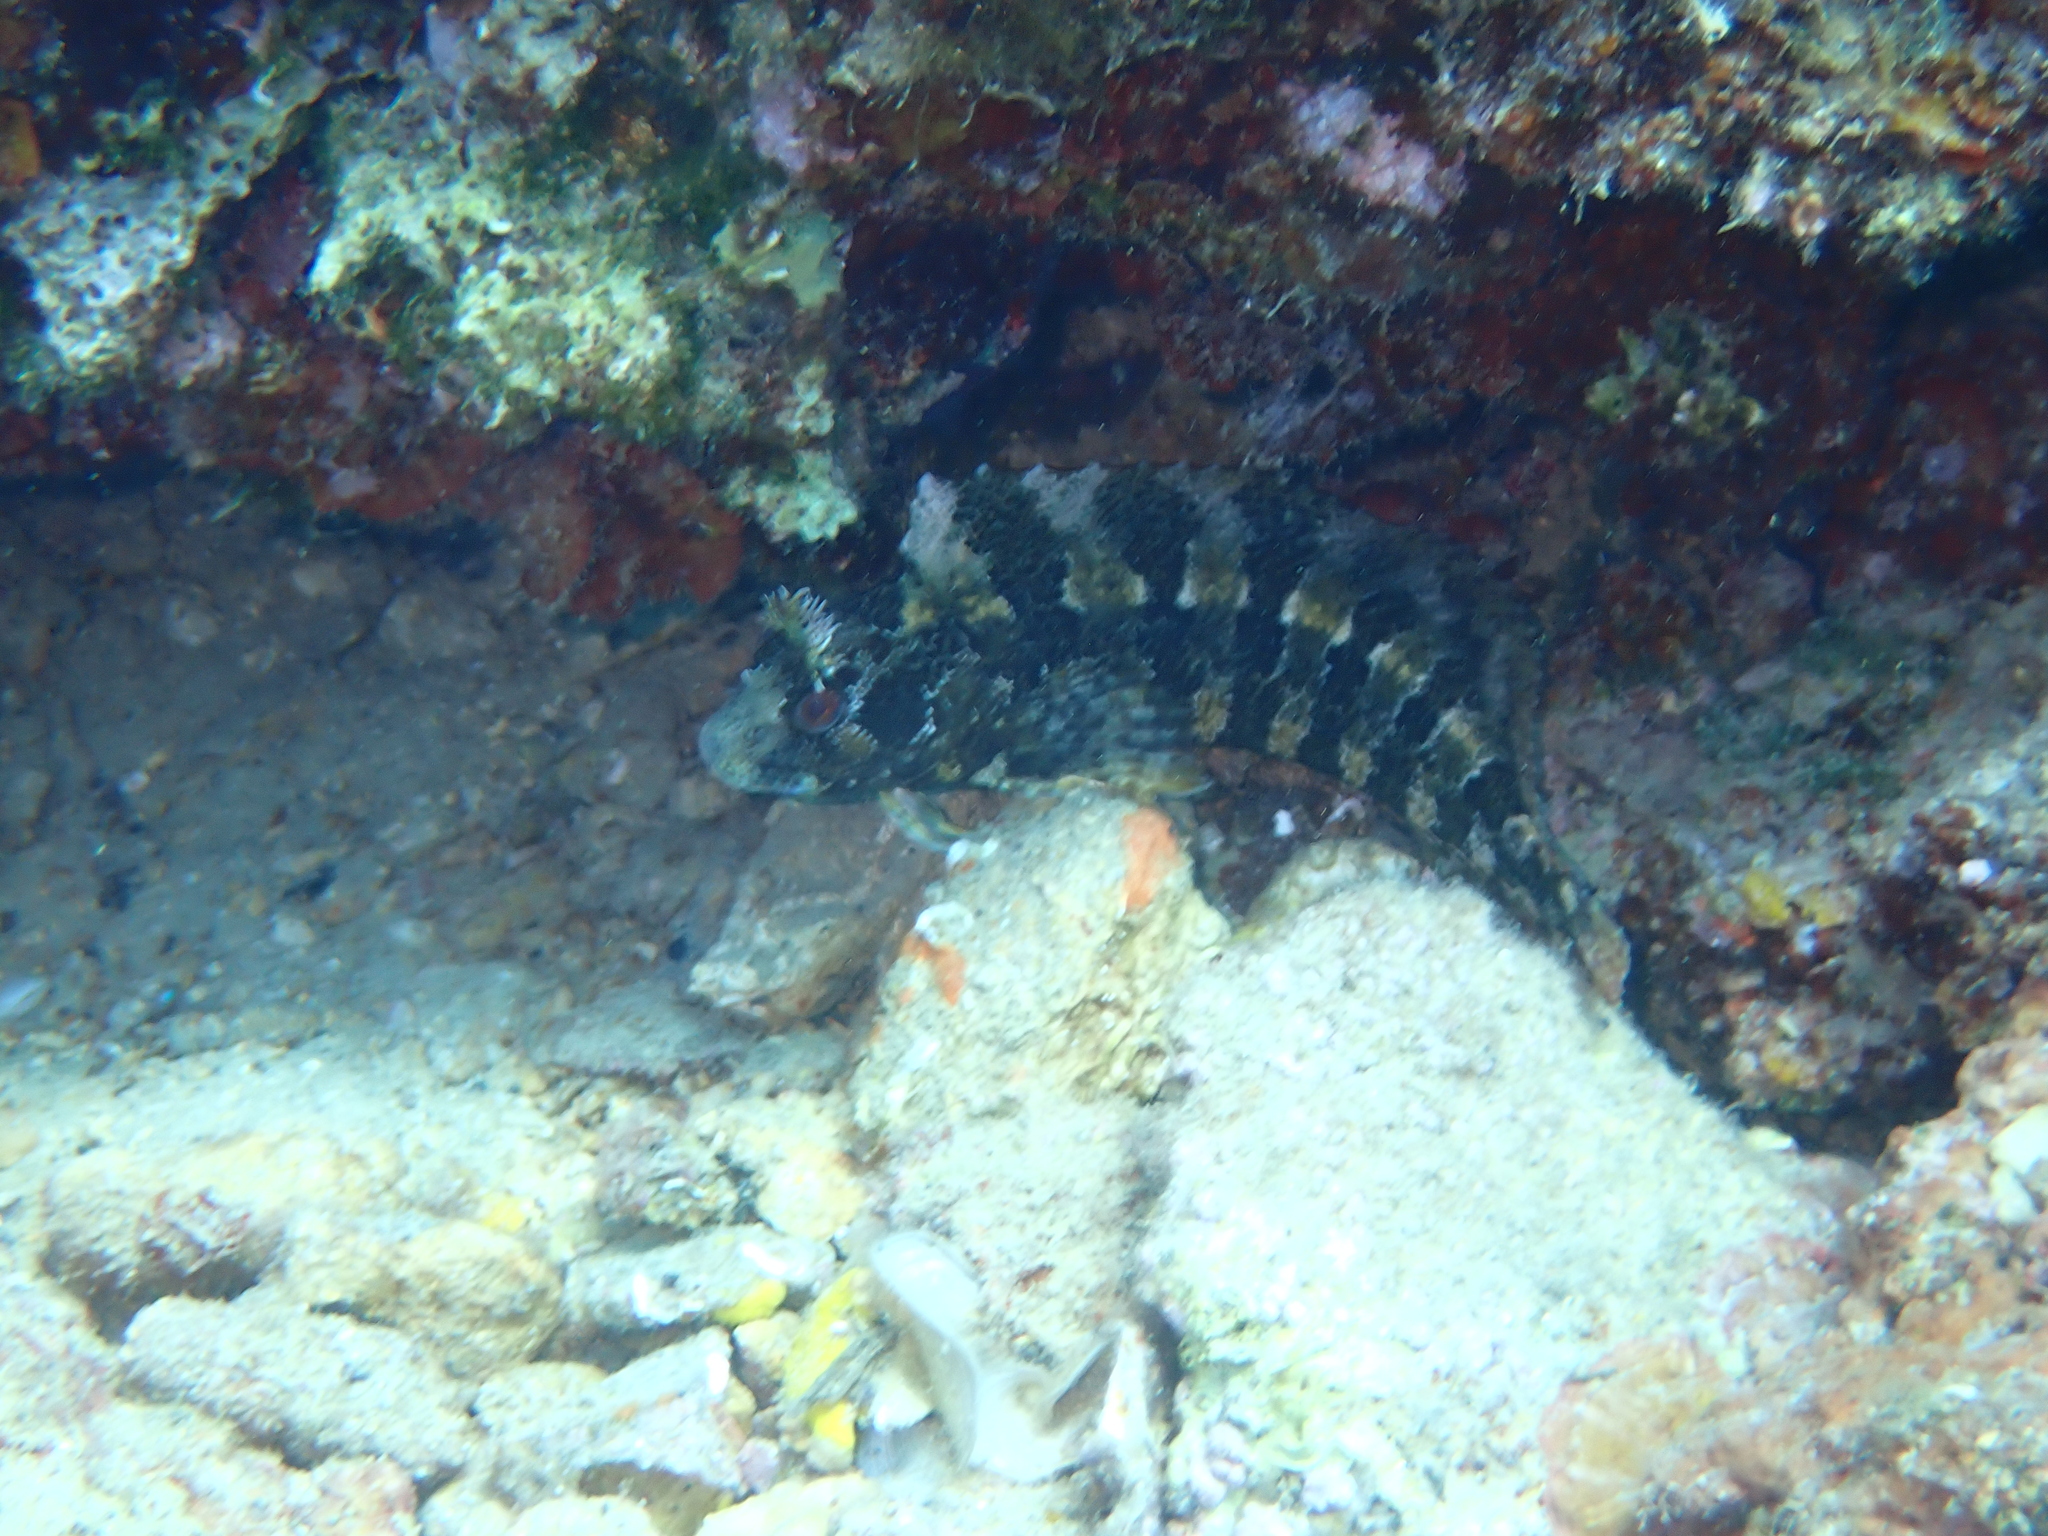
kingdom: Animalia
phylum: Chordata
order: Perciformes
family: Blenniidae
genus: Parablennius
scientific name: Parablennius gattorugine
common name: Tompot blenny
